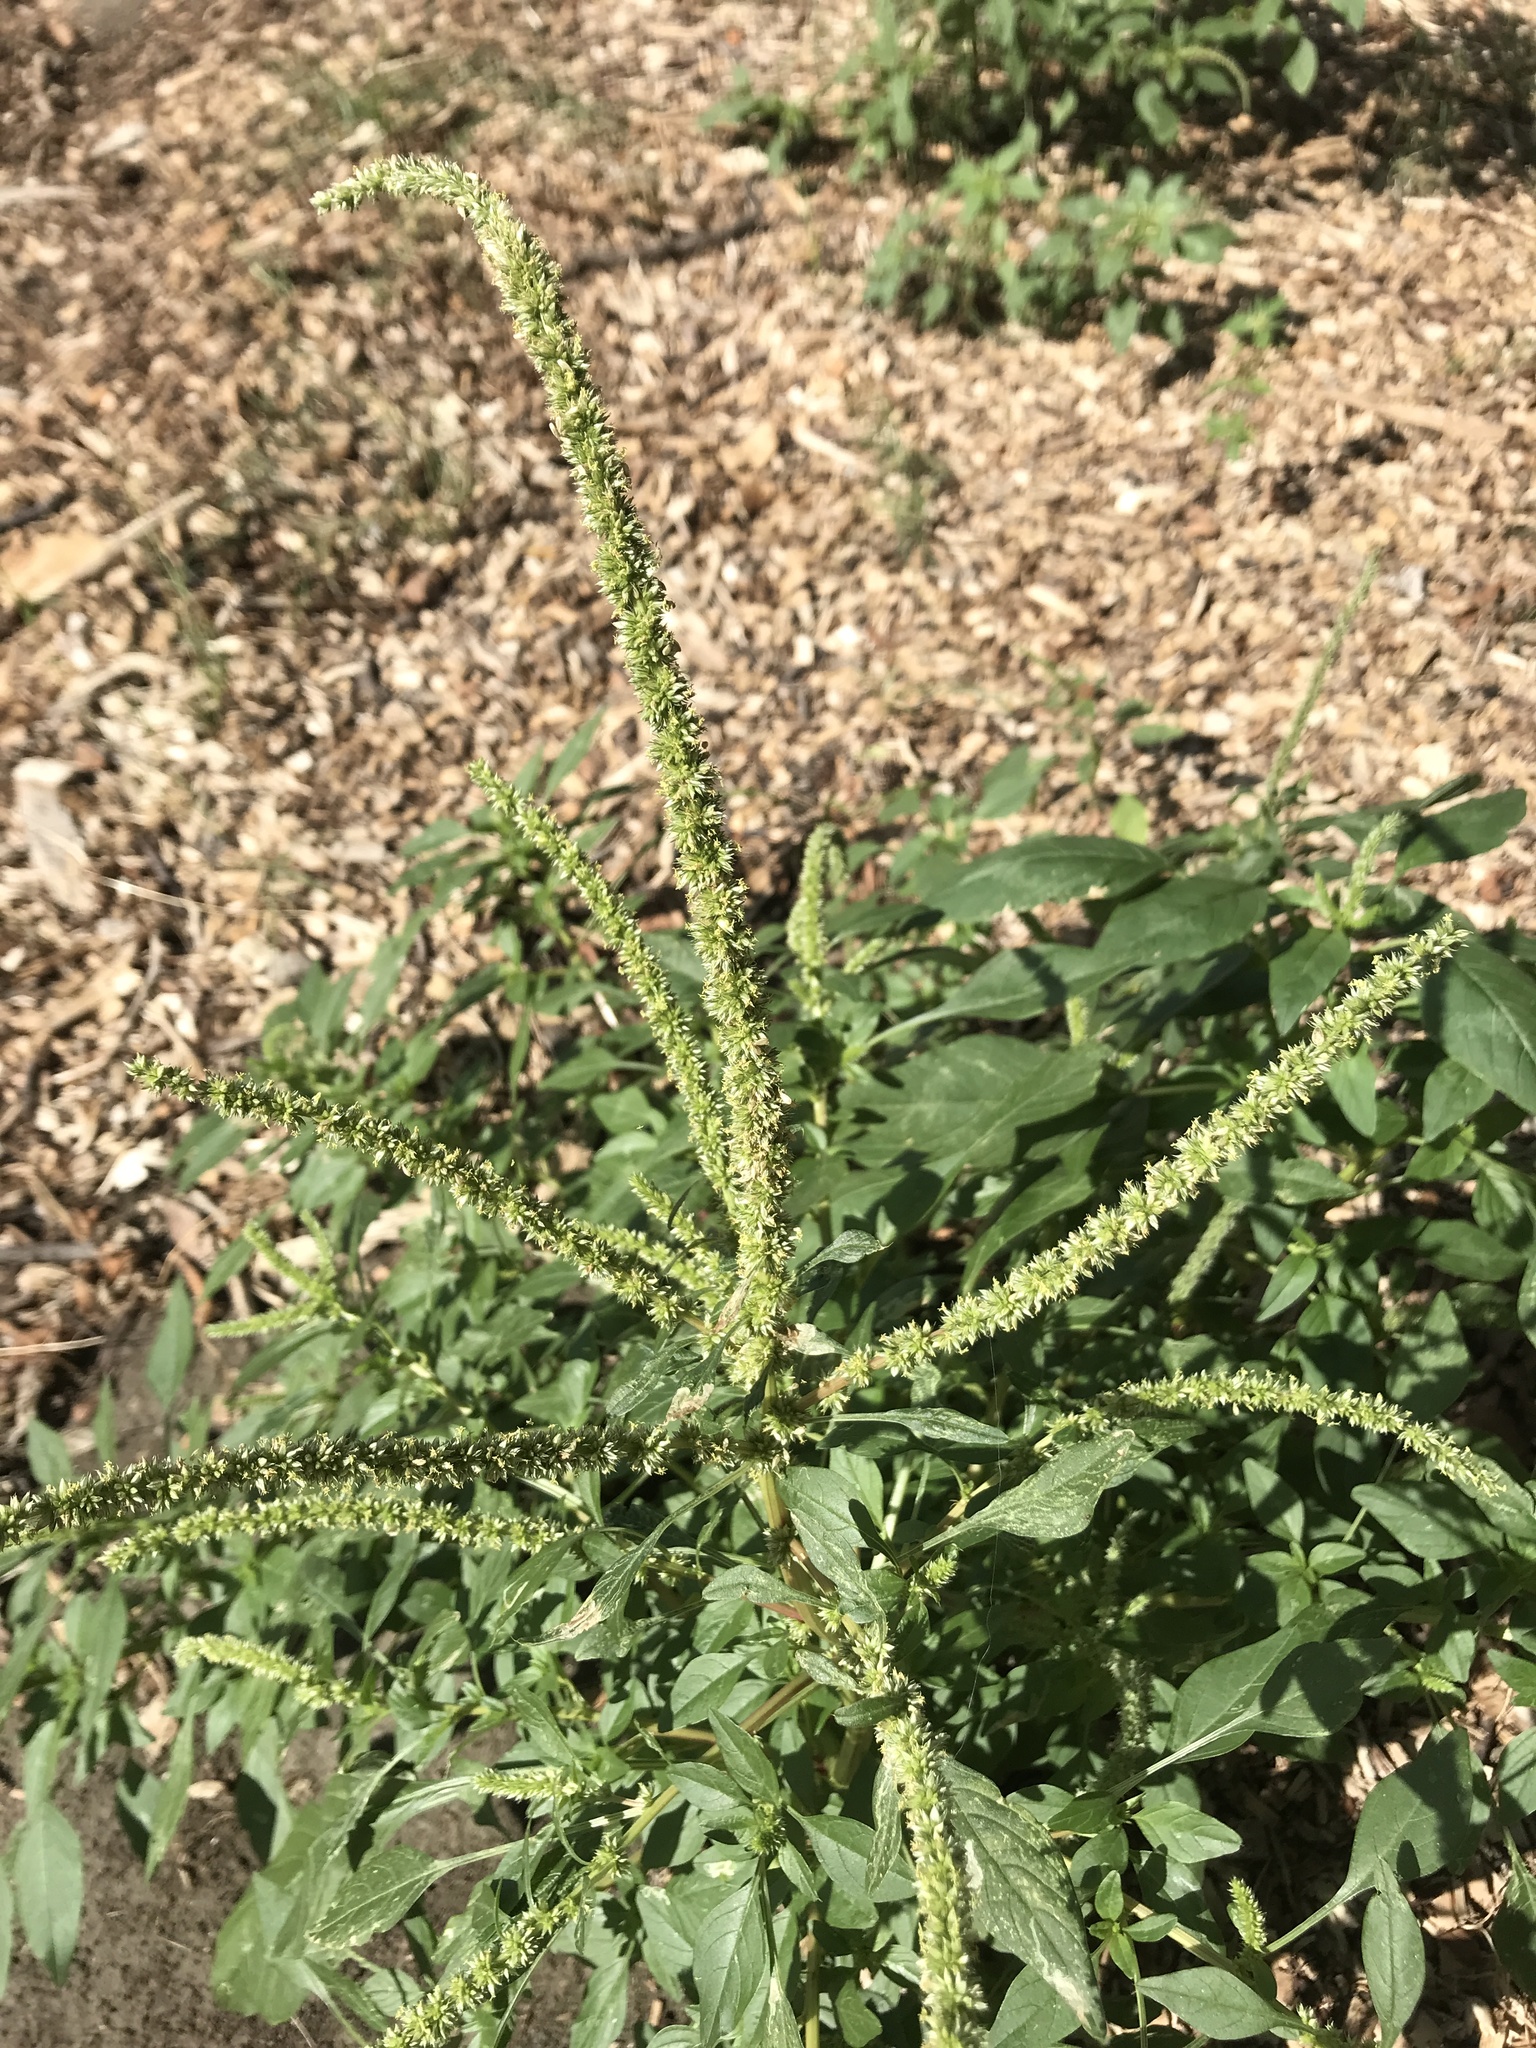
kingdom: Plantae
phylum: Tracheophyta
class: Magnoliopsida
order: Caryophyllales
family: Amaranthaceae
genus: Amaranthus
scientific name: Amaranthus palmeri
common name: Dioecious amaranth
